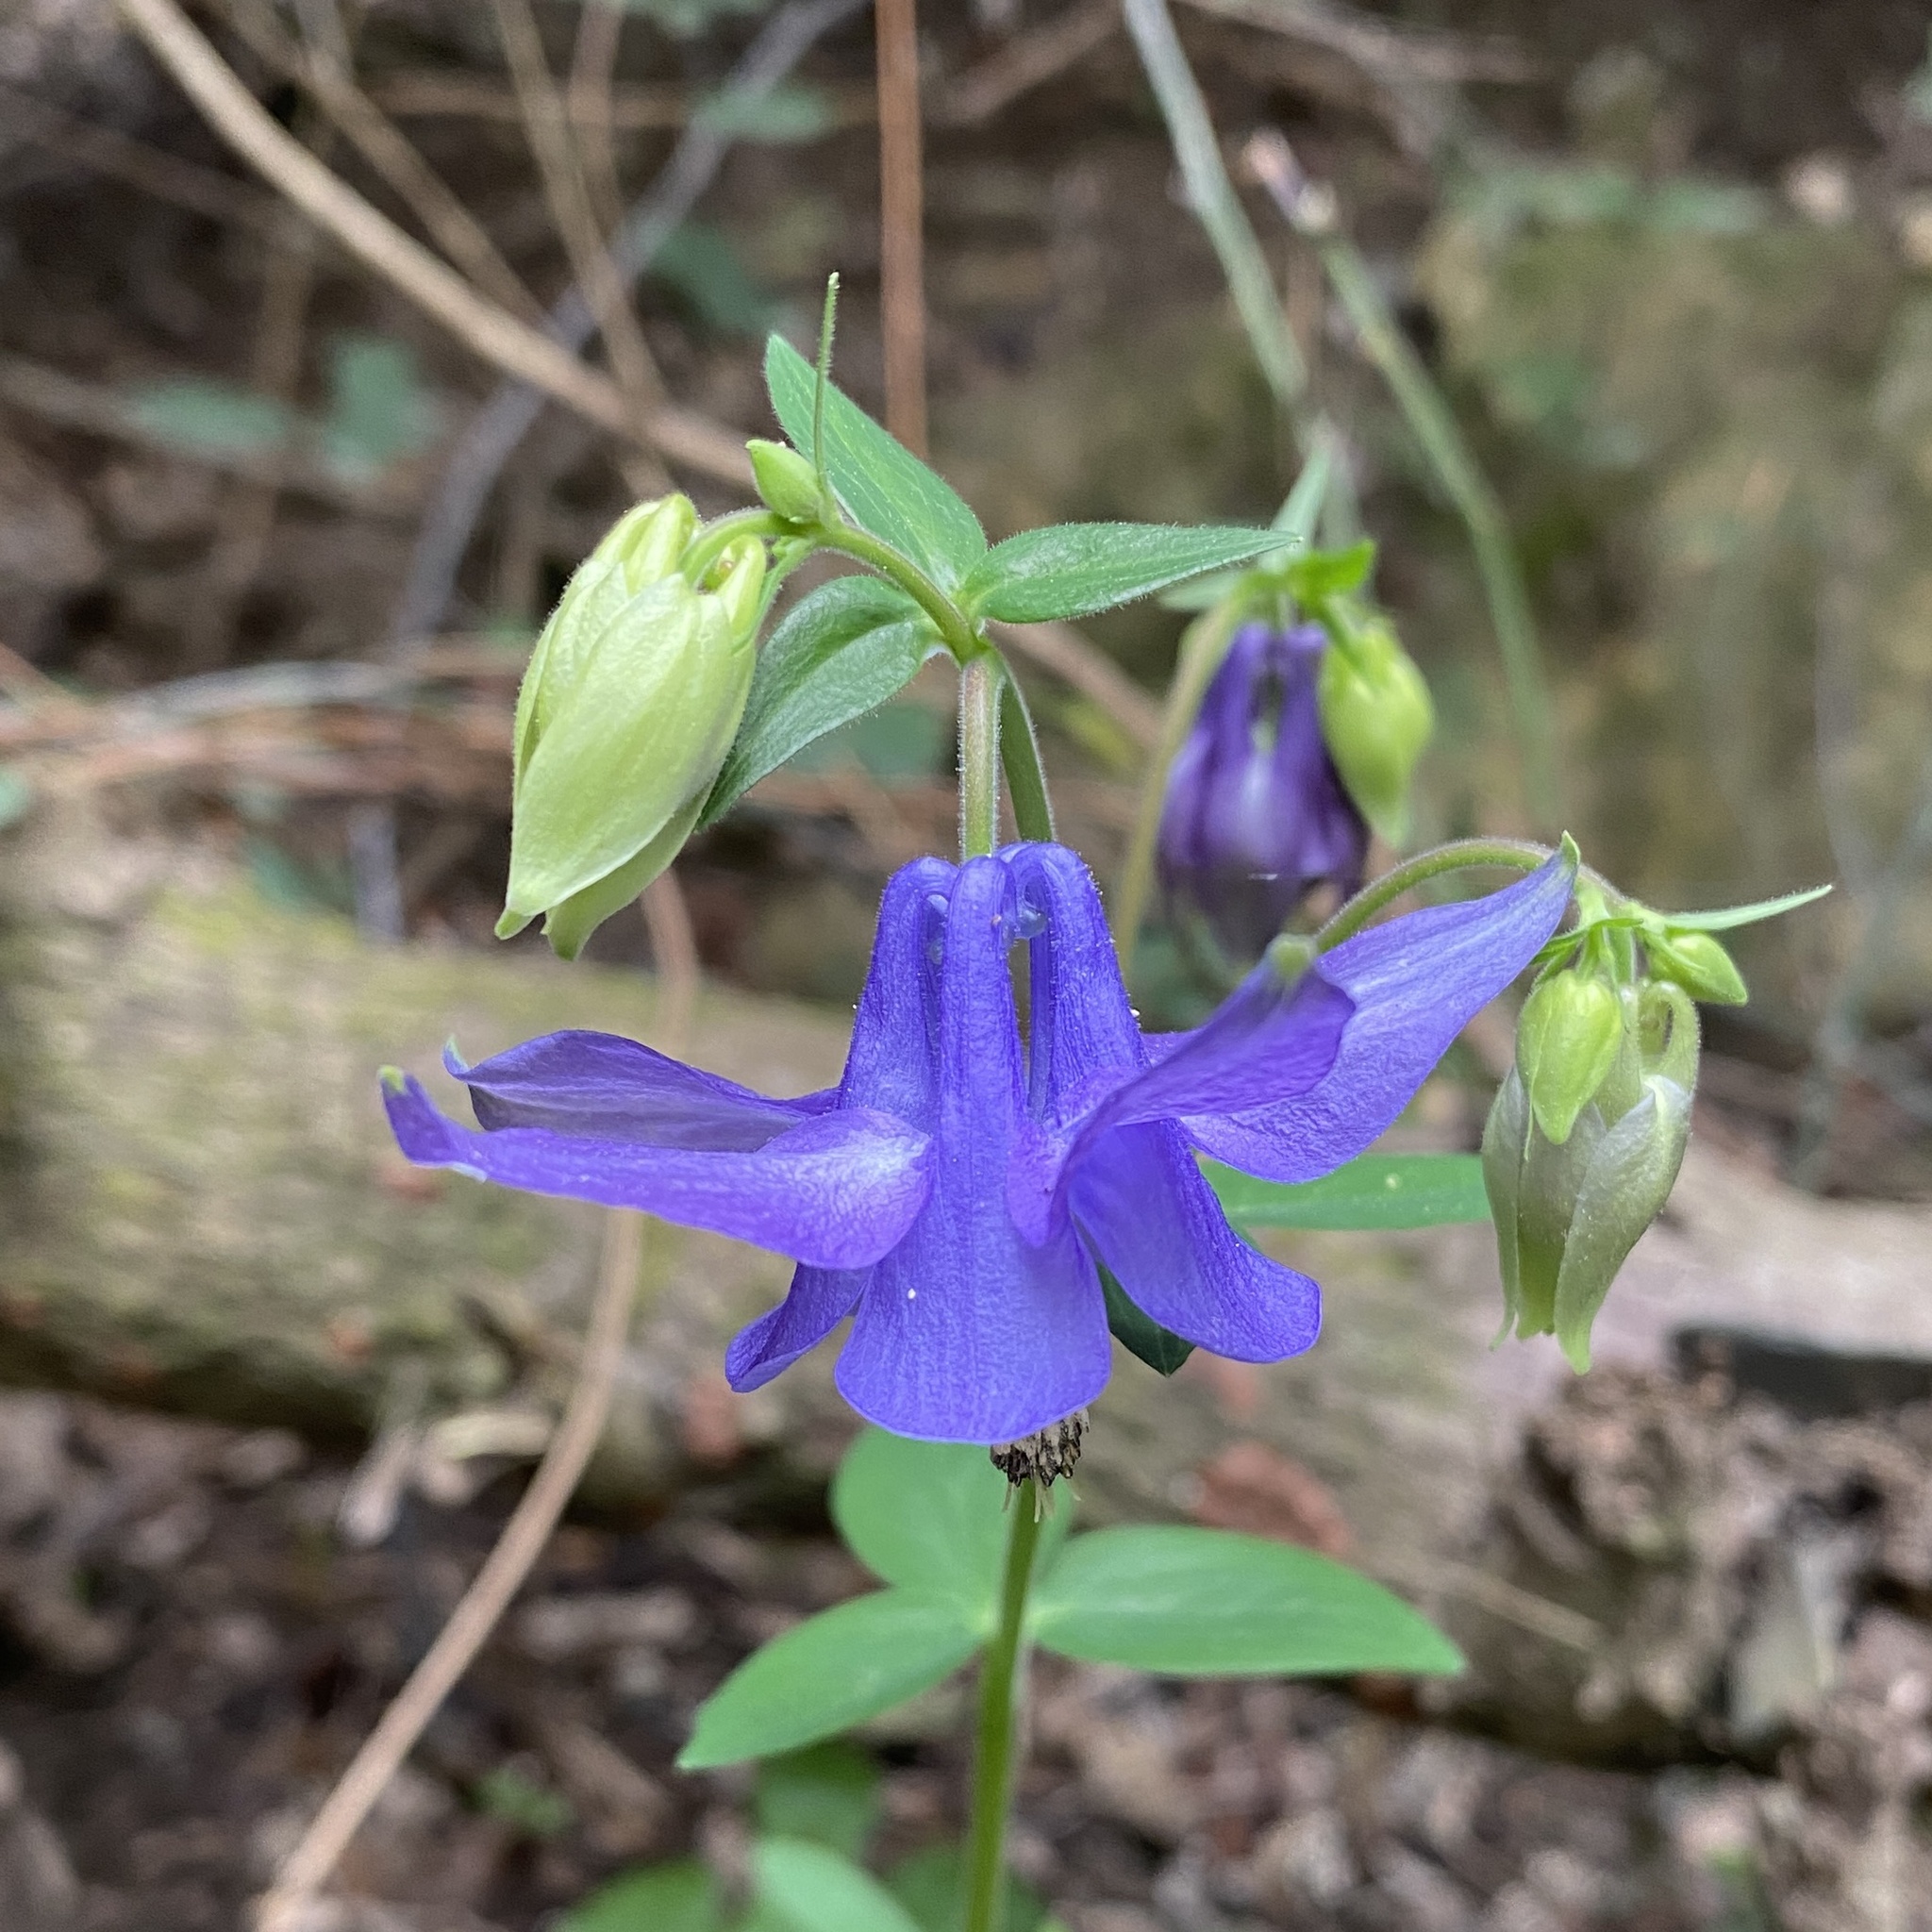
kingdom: Plantae
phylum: Tracheophyta
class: Magnoliopsida
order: Ranunculales
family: Ranunculaceae
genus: Aquilegia
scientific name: Aquilegia vulgaris
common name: Columbine
